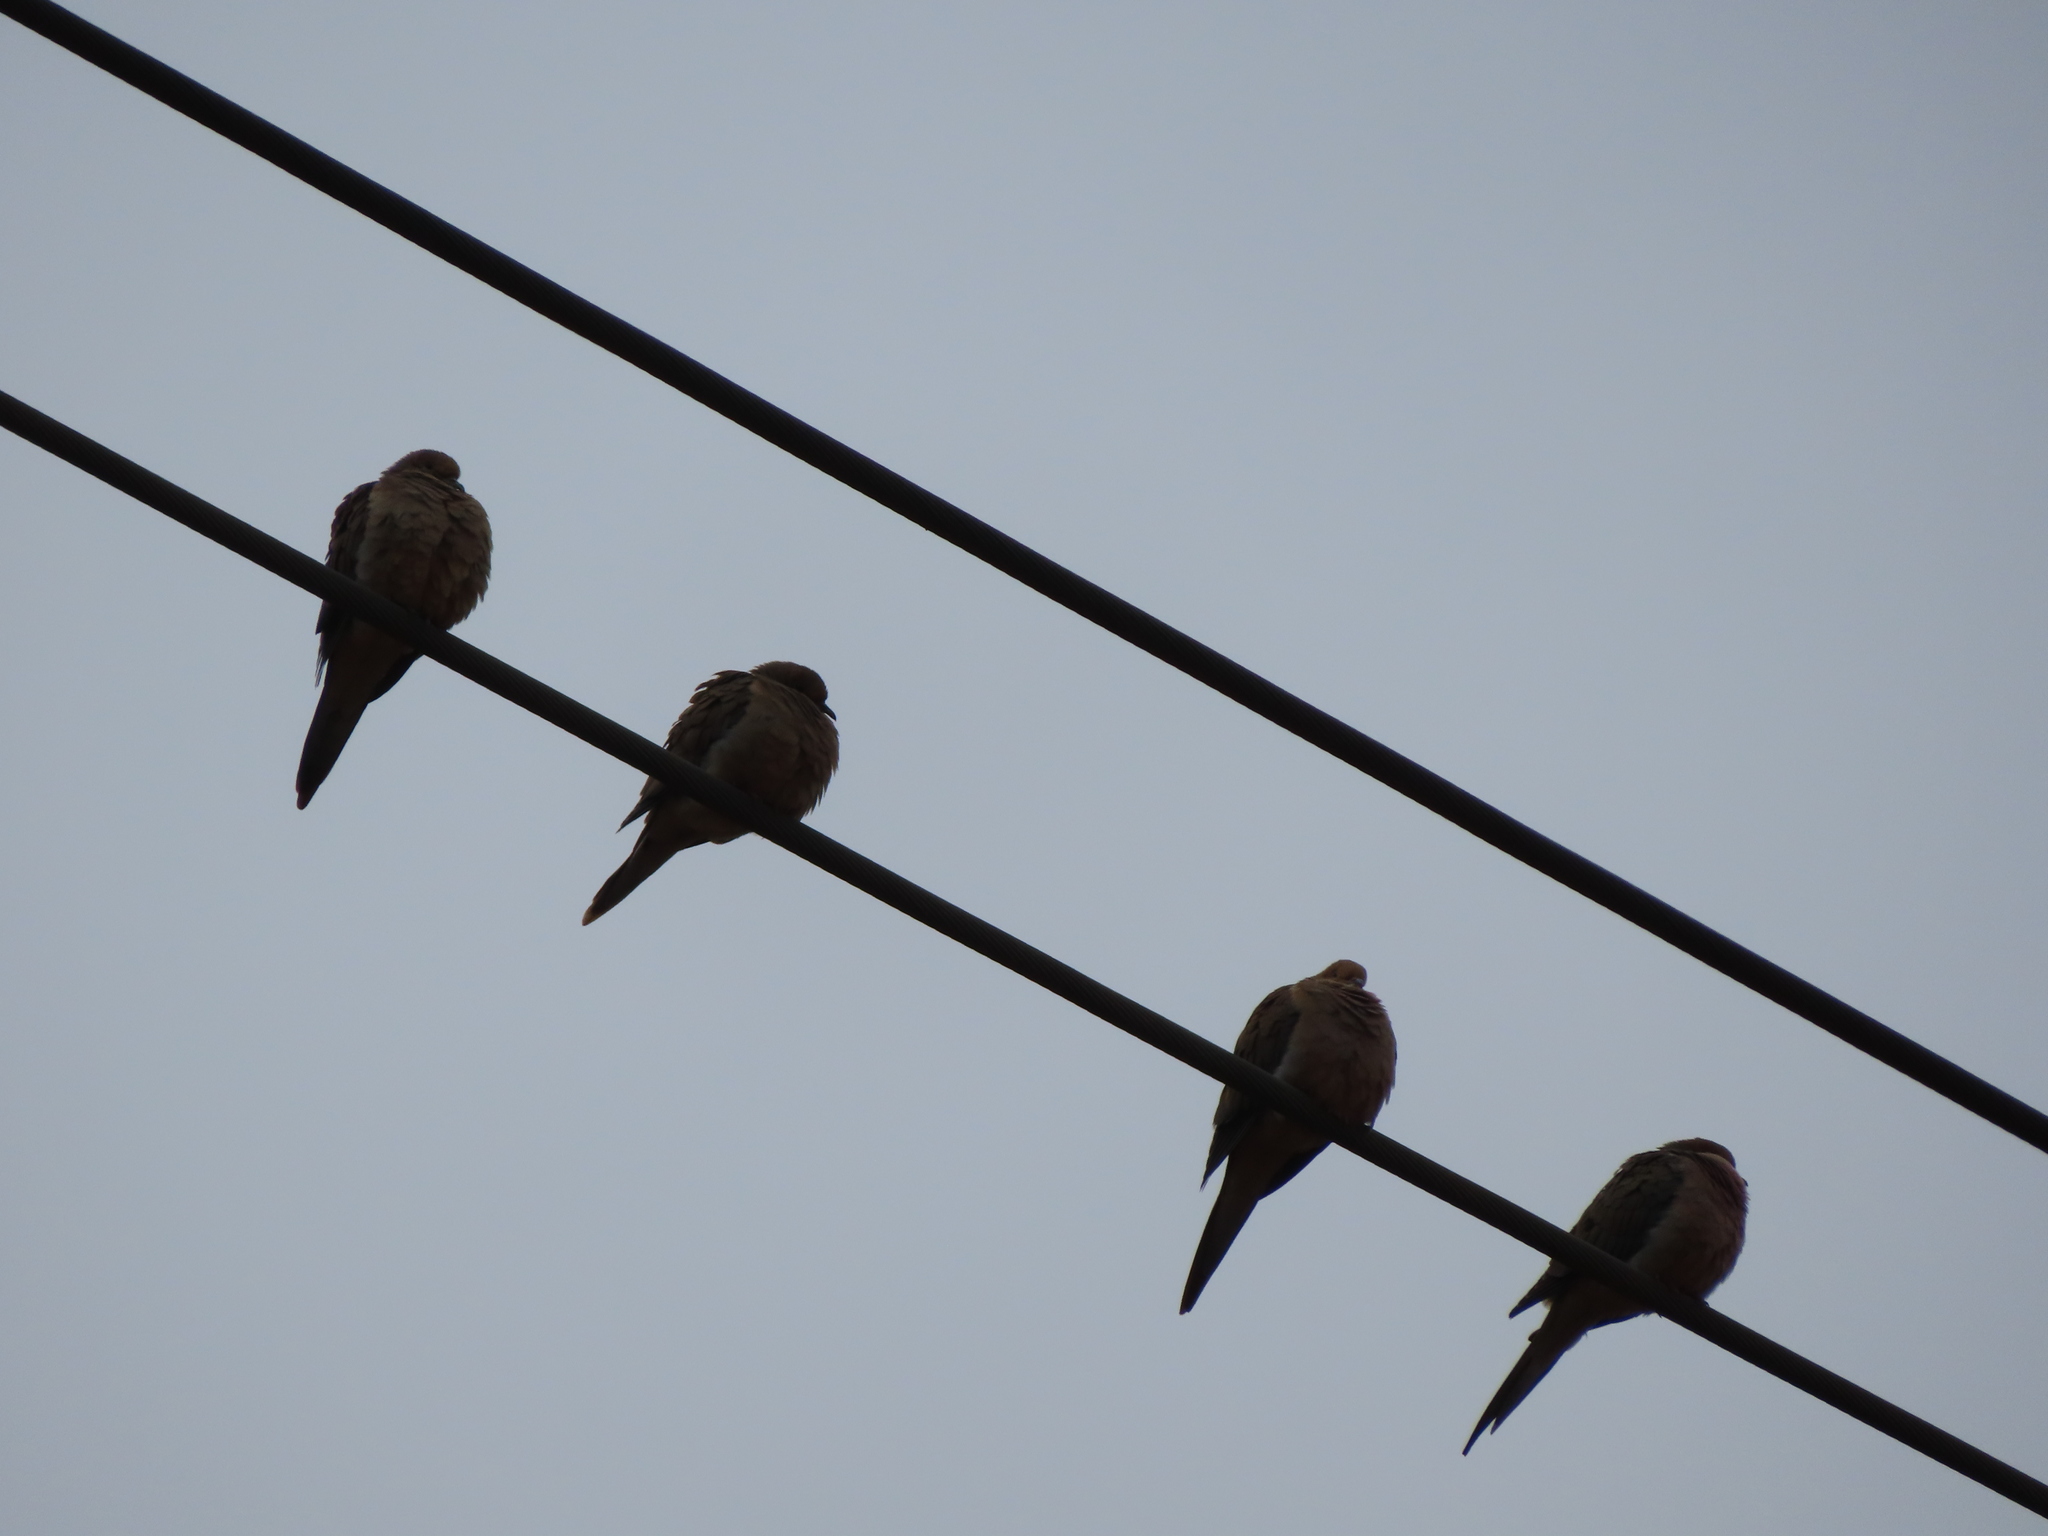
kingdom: Animalia
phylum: Chordata
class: Aves
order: Columbiformes
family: Columbidae
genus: Zenaida
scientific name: Zenaida macroura
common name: Mourning dove
